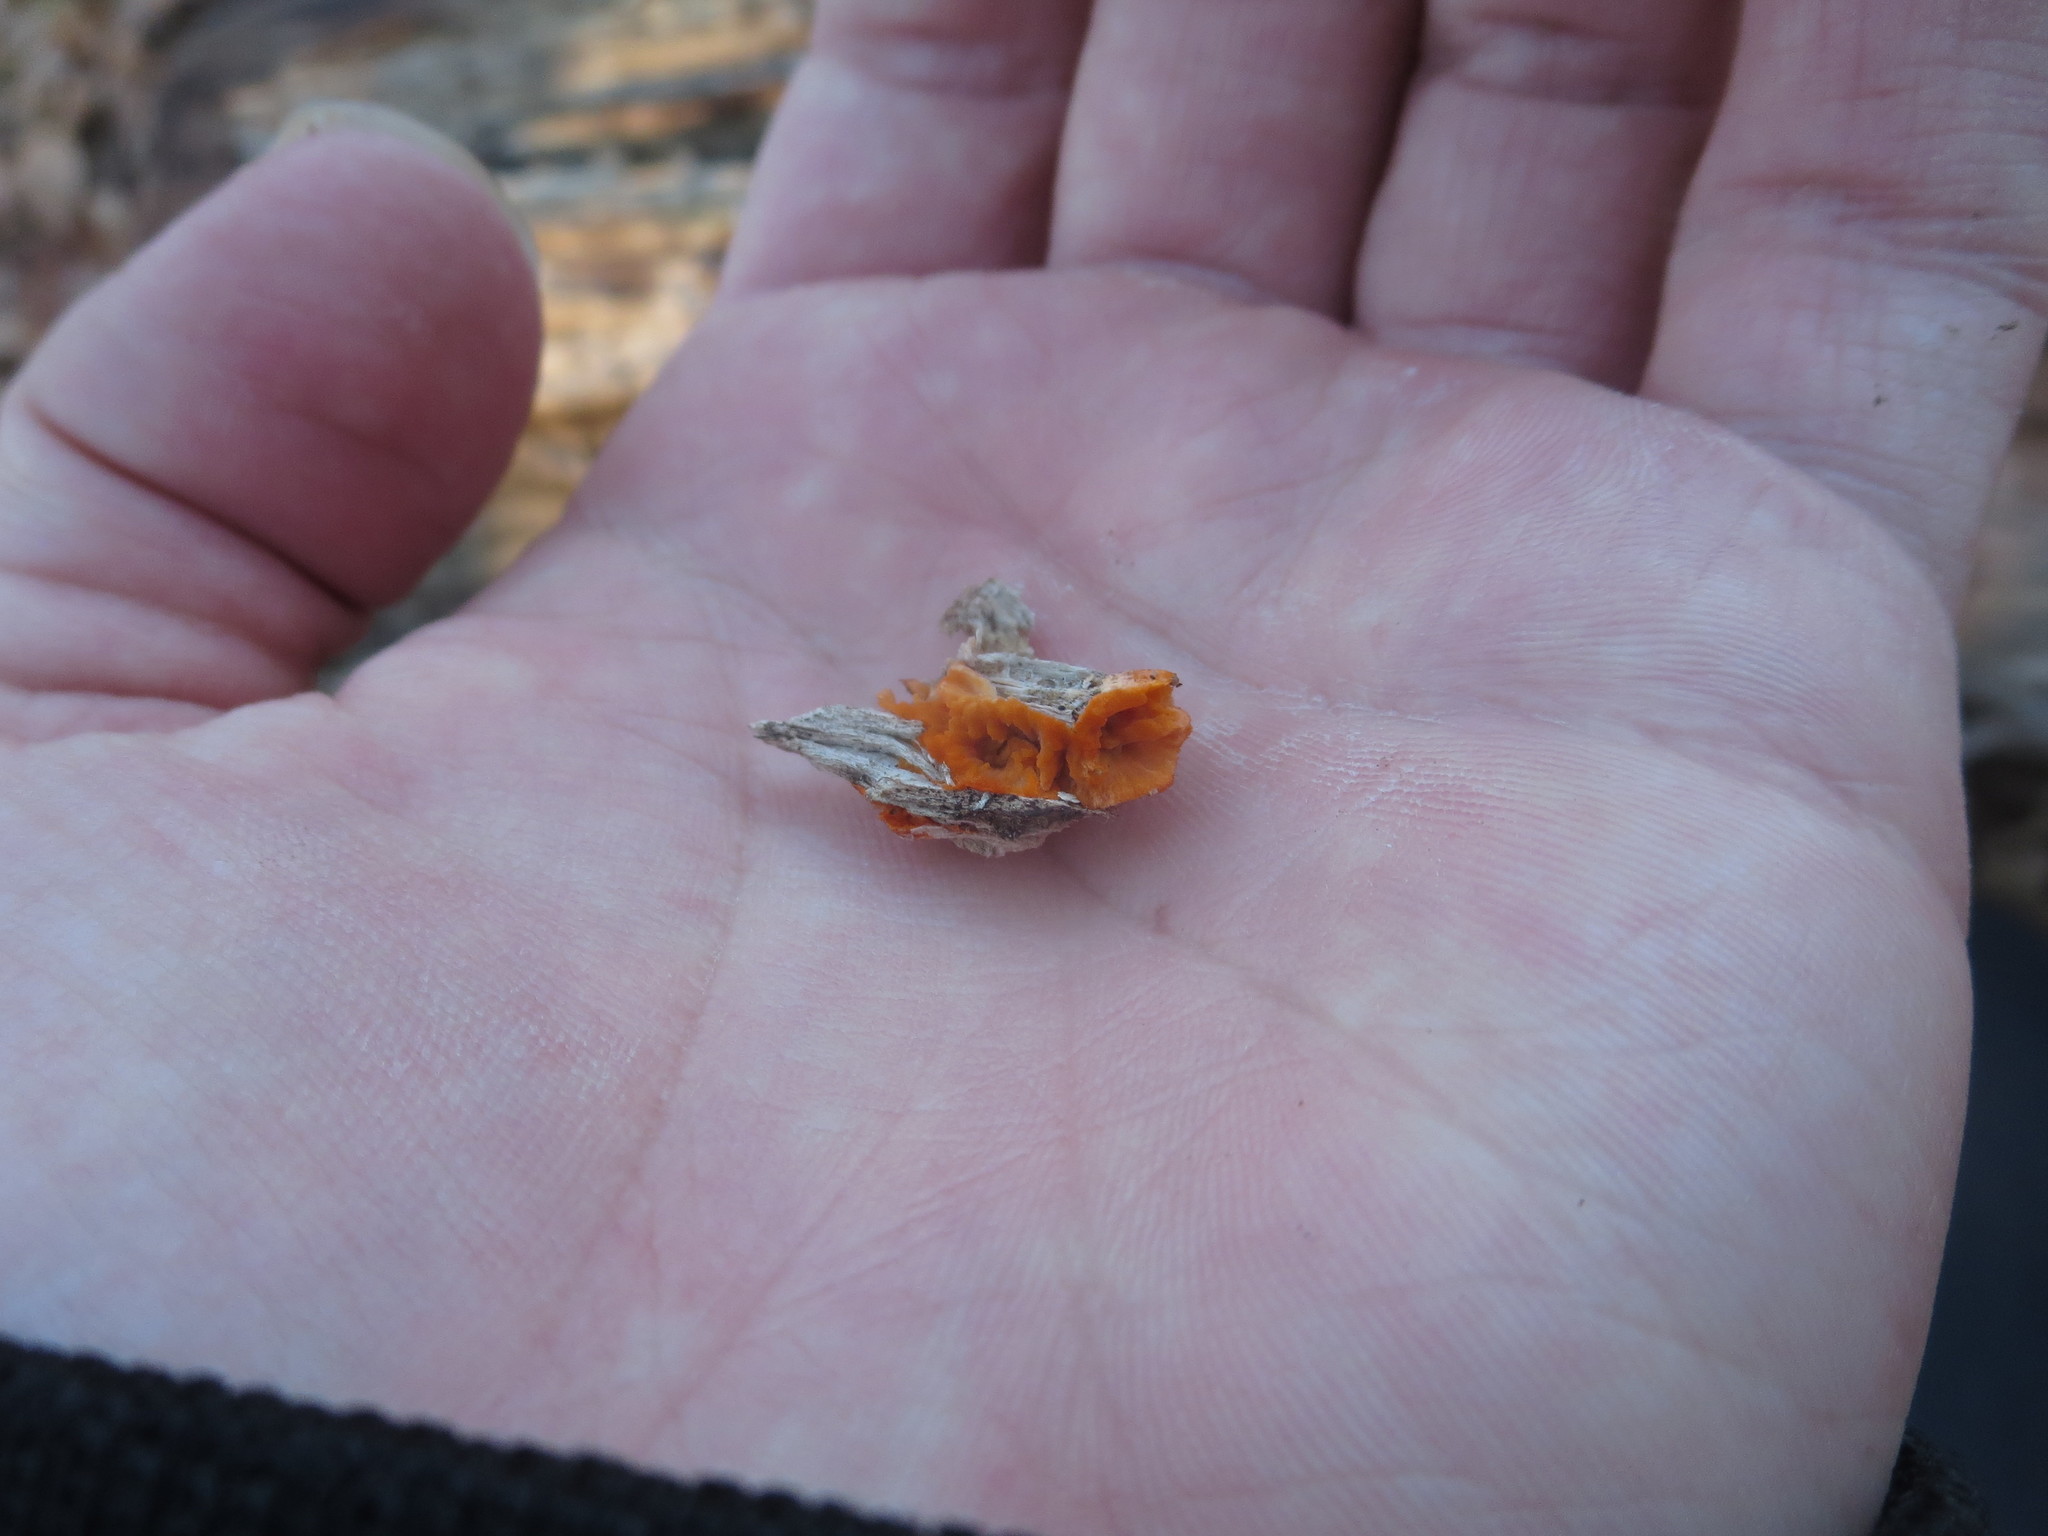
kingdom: Fungi
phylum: Basidiomycota
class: Agaricomycetes
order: Polyporales
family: Meruliaceae
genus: Phlebia
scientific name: Phlebia radiata
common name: Wrinkled crust
